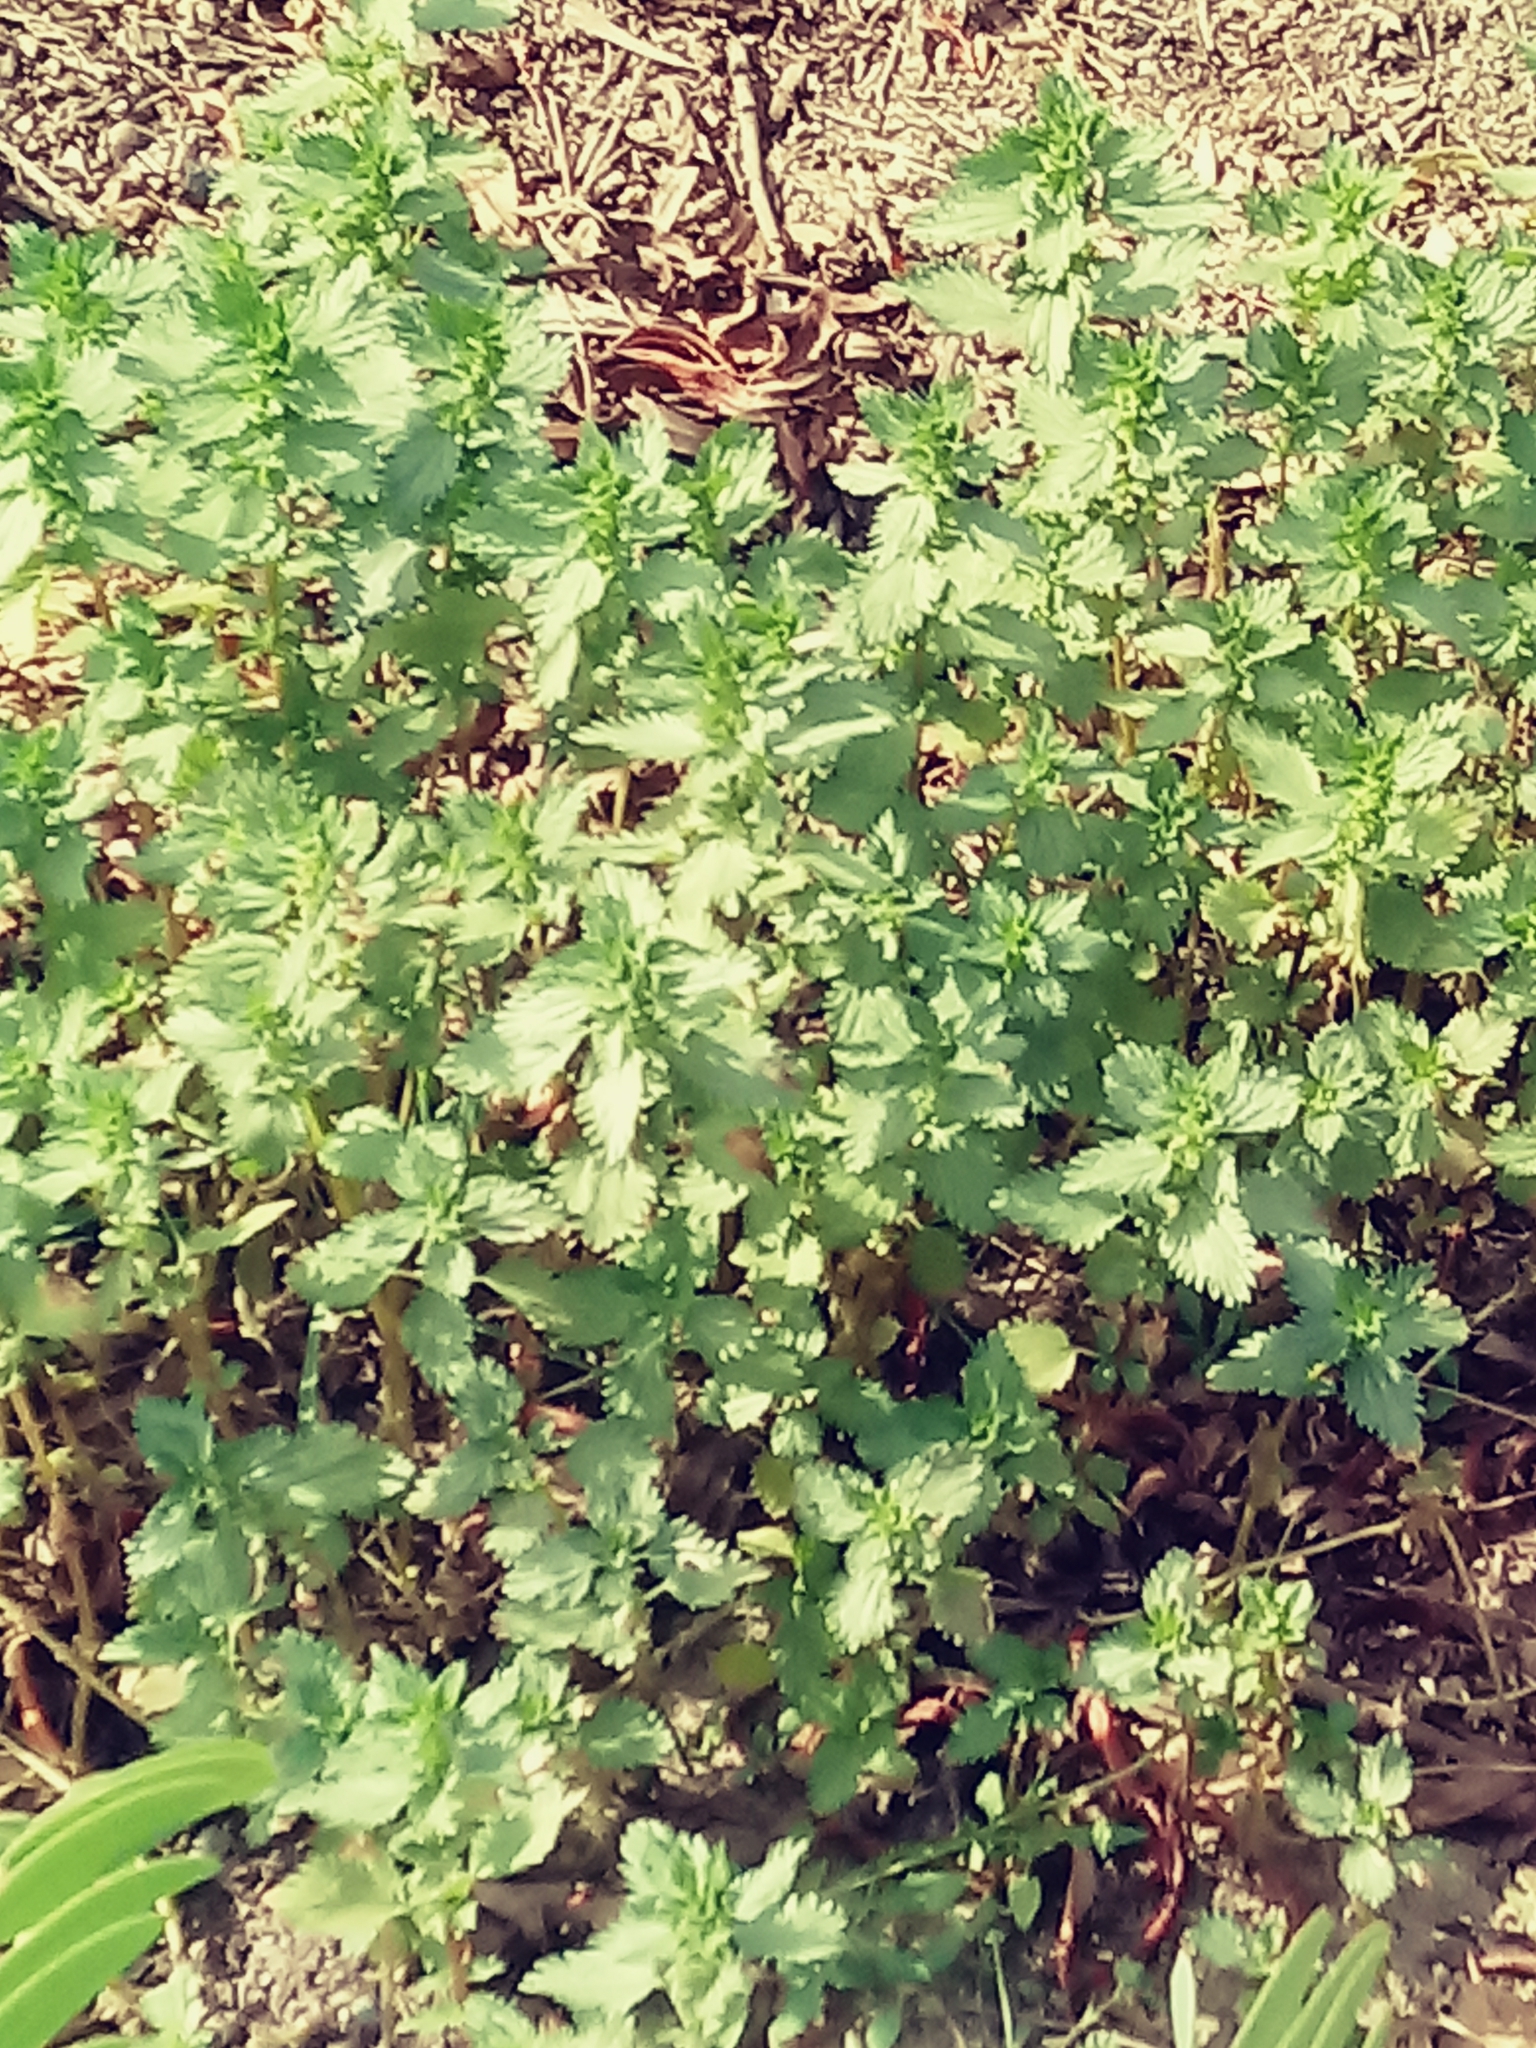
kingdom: Plantae
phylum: Tracheophyta
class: Magnoliopsida
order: Rosales
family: Urticaceae
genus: Urtica
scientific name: Urtica urens
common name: Dwarf nettle
